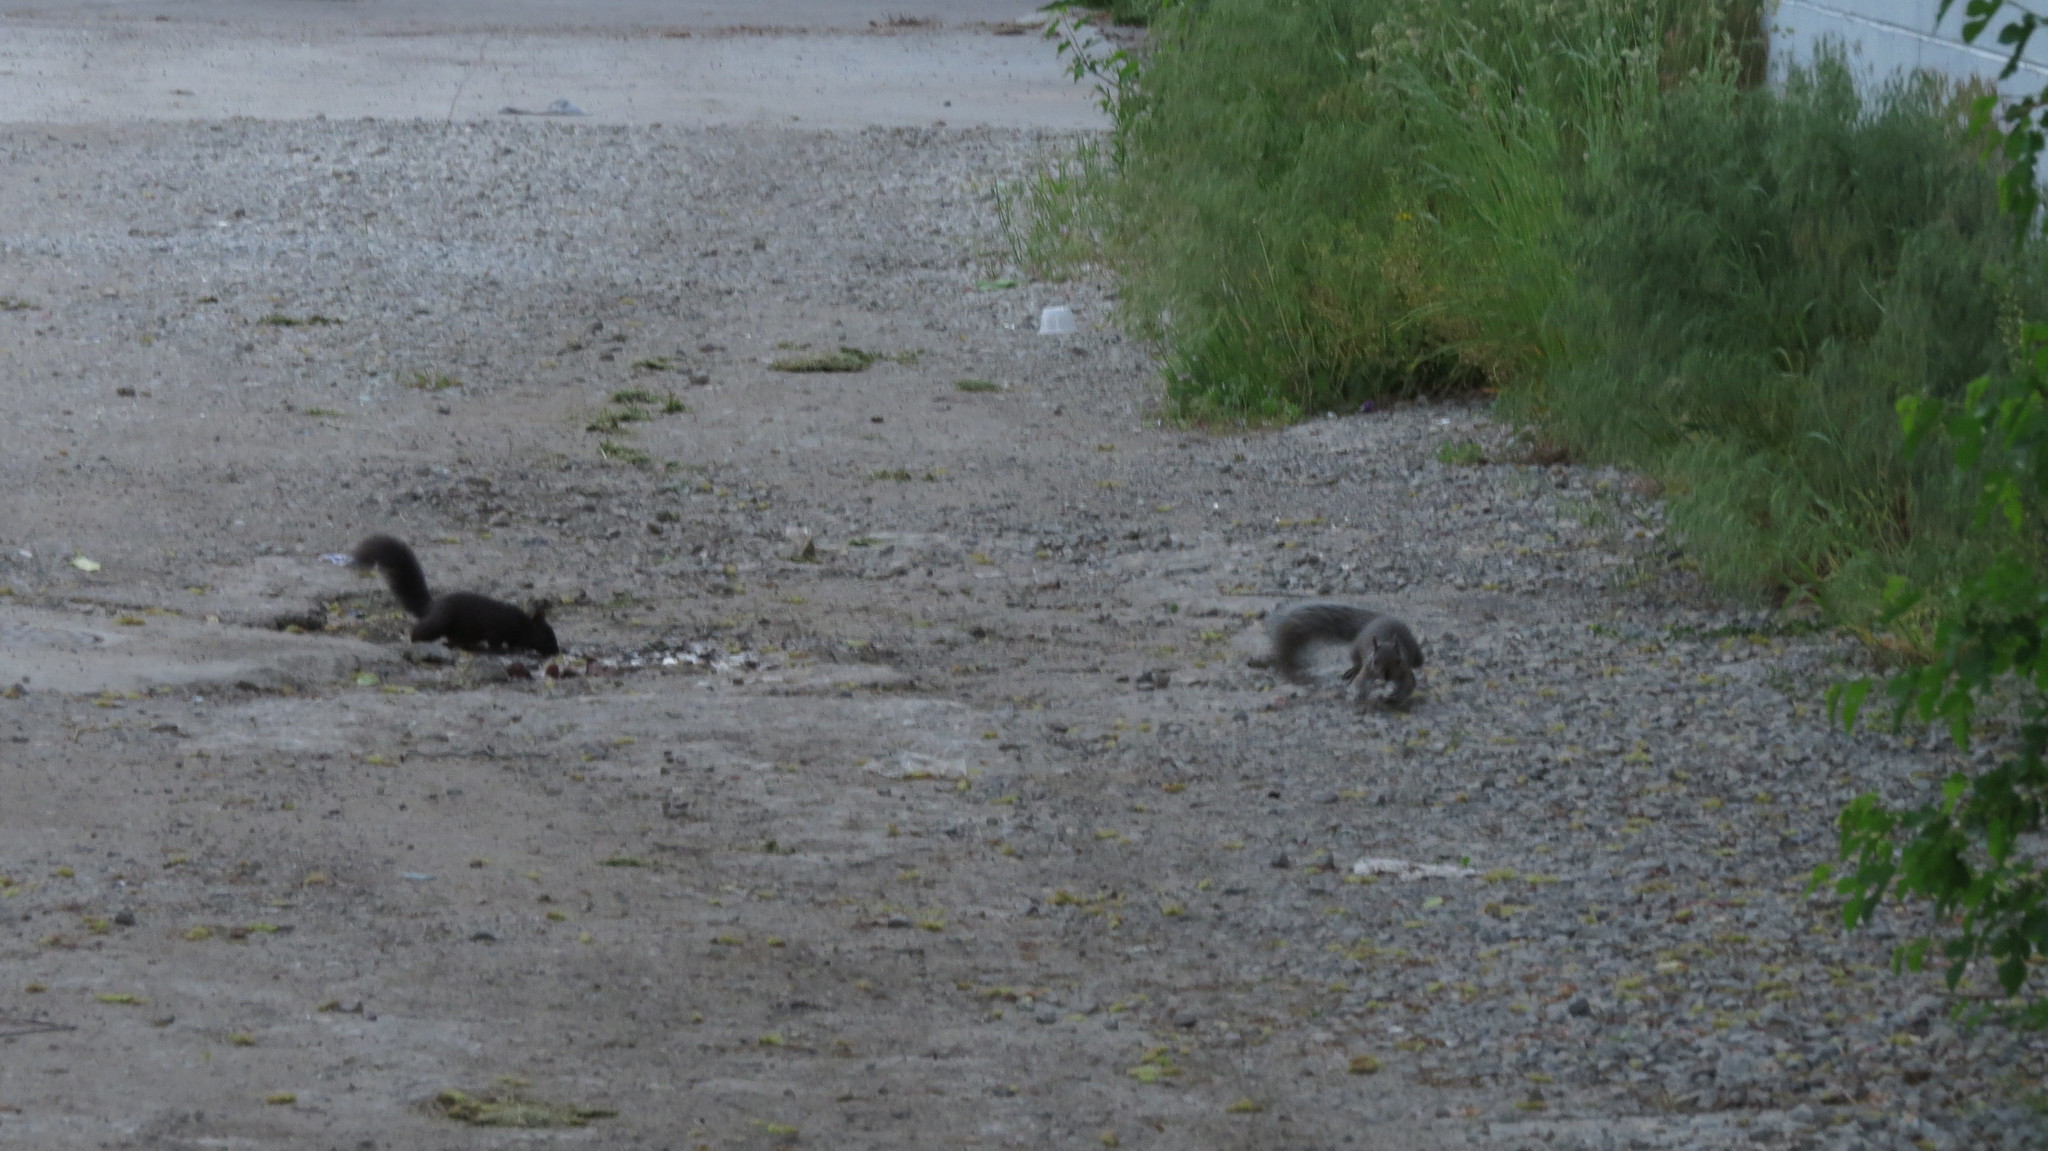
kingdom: Animalia
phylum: Chordata
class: Mammalia
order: Rodentia
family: Sciuridae
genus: Sciurus
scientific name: Sciurus carolinensis
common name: Eastern gray squirrel
